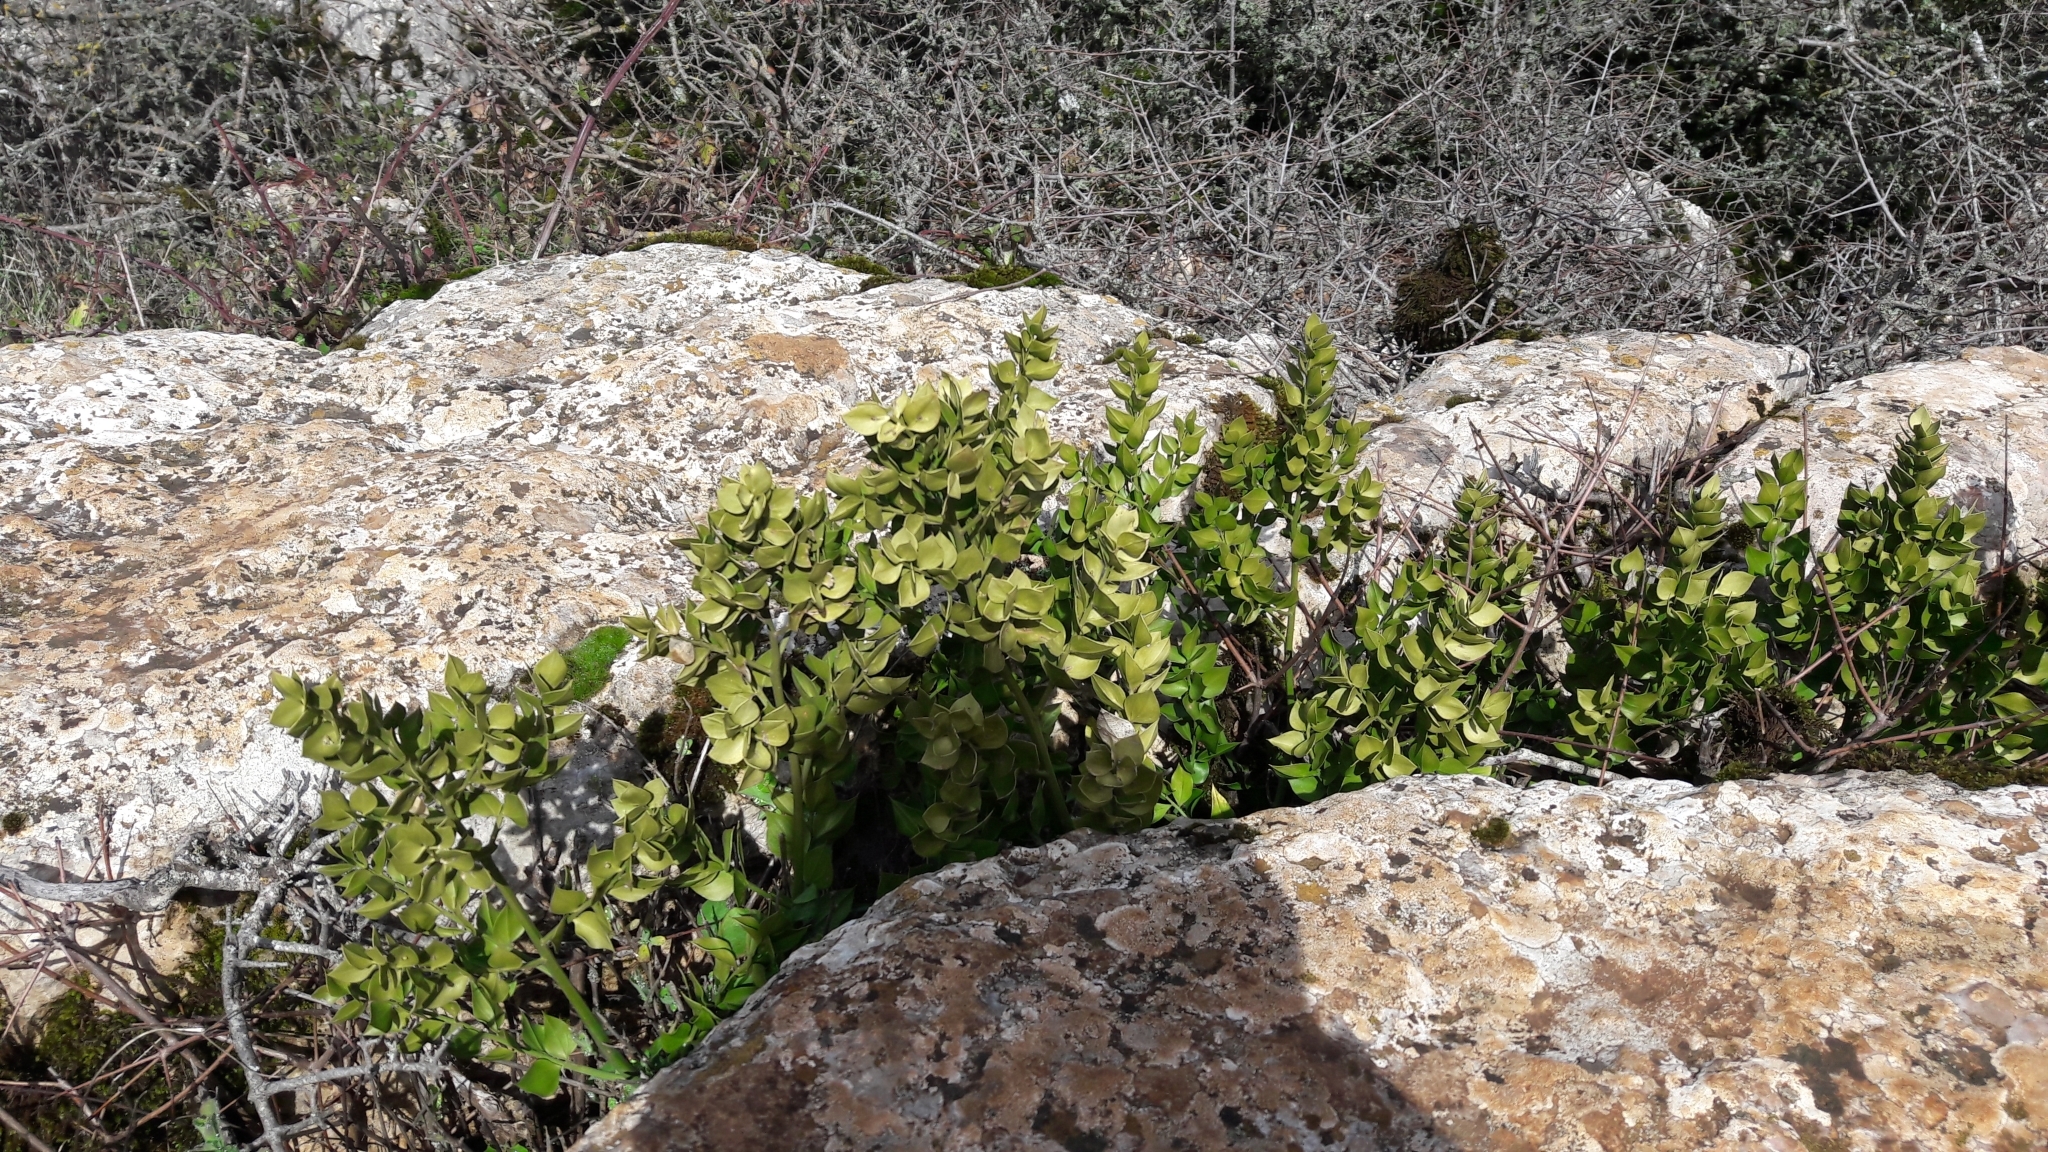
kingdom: Plantae
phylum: Tracheophyta
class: Liliopsida
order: Asparagales
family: Asparagaceae
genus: Ruscus
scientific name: Ruscus aculeatus
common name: Butcher's-broom
